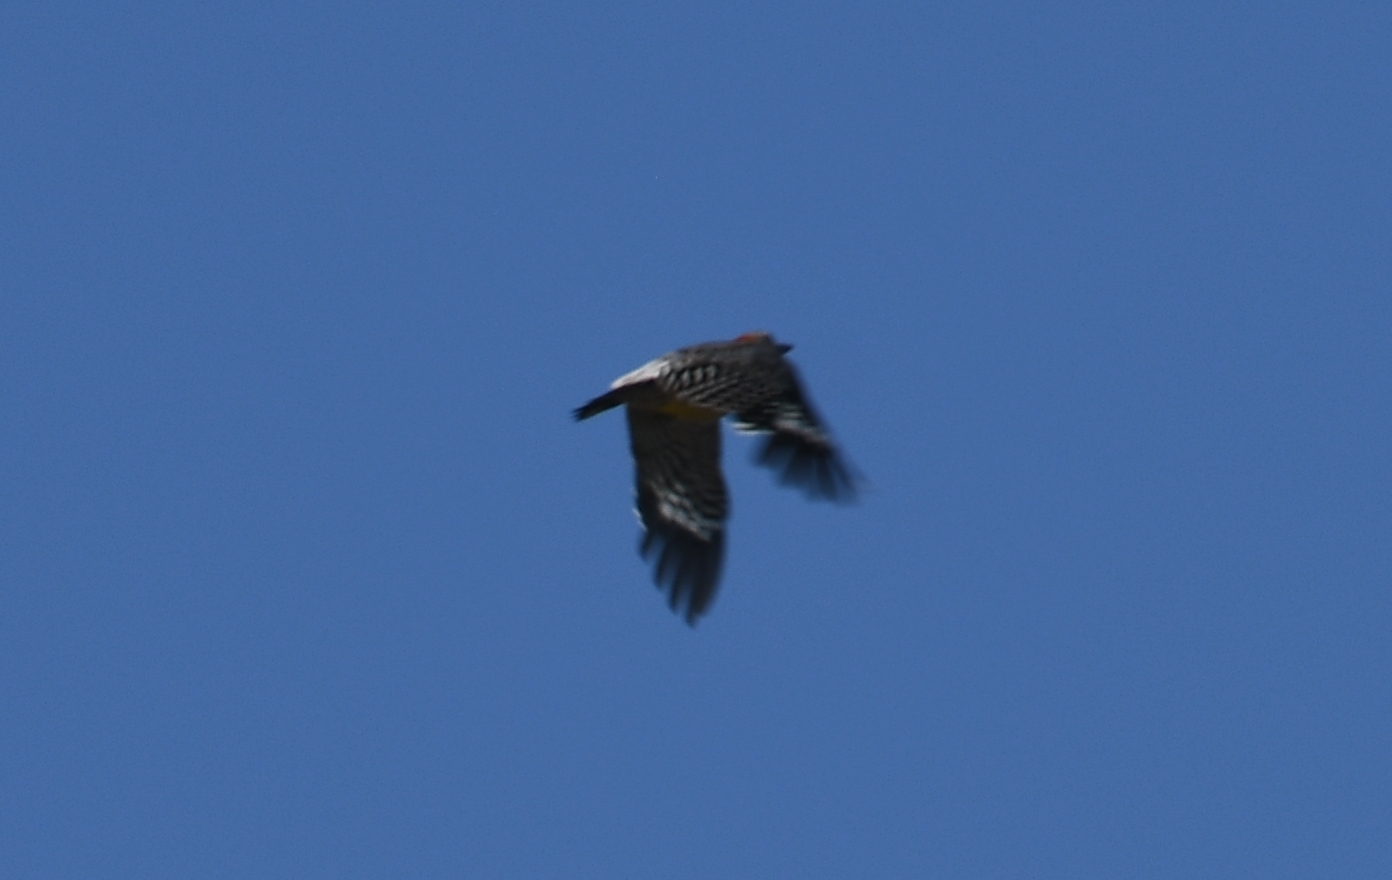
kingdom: Animalia
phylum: Chordata
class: Aves
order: Piciformes
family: Picidae
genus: Melanerpes
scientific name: Melanerpes aurifrons
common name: Golden-fronted woodpecker
